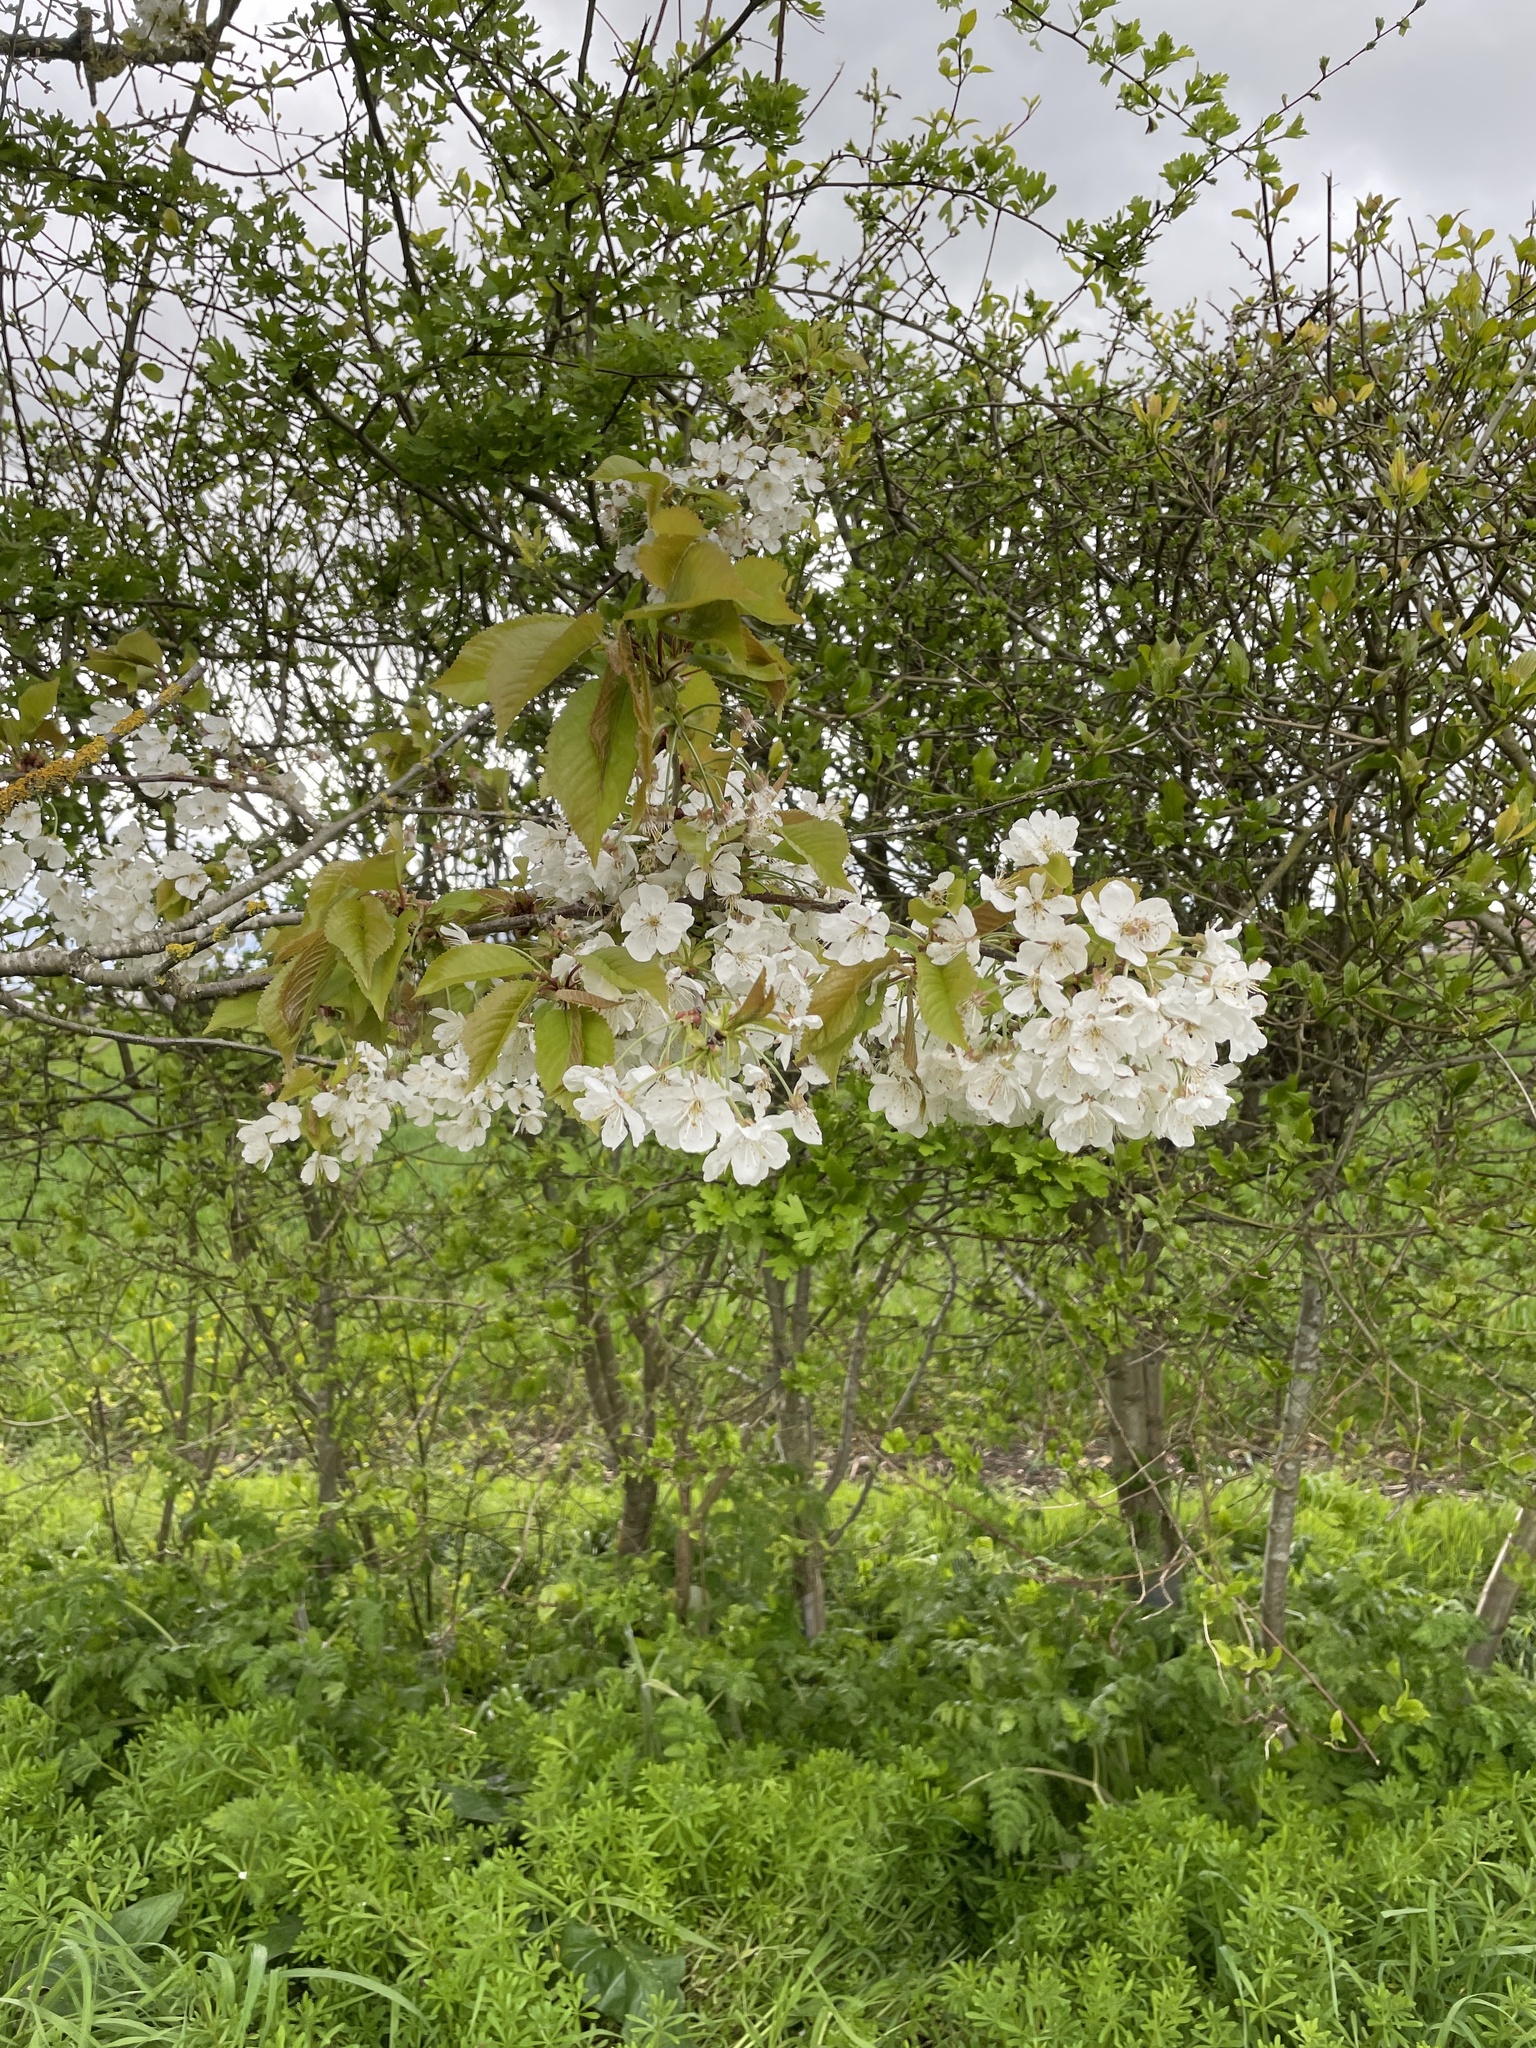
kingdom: Plantae
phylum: Tracheophyta
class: Magnoliopsida
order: Rosales
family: Rosaceae
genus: Prunus
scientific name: Prunus avium
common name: Sweet cherry
